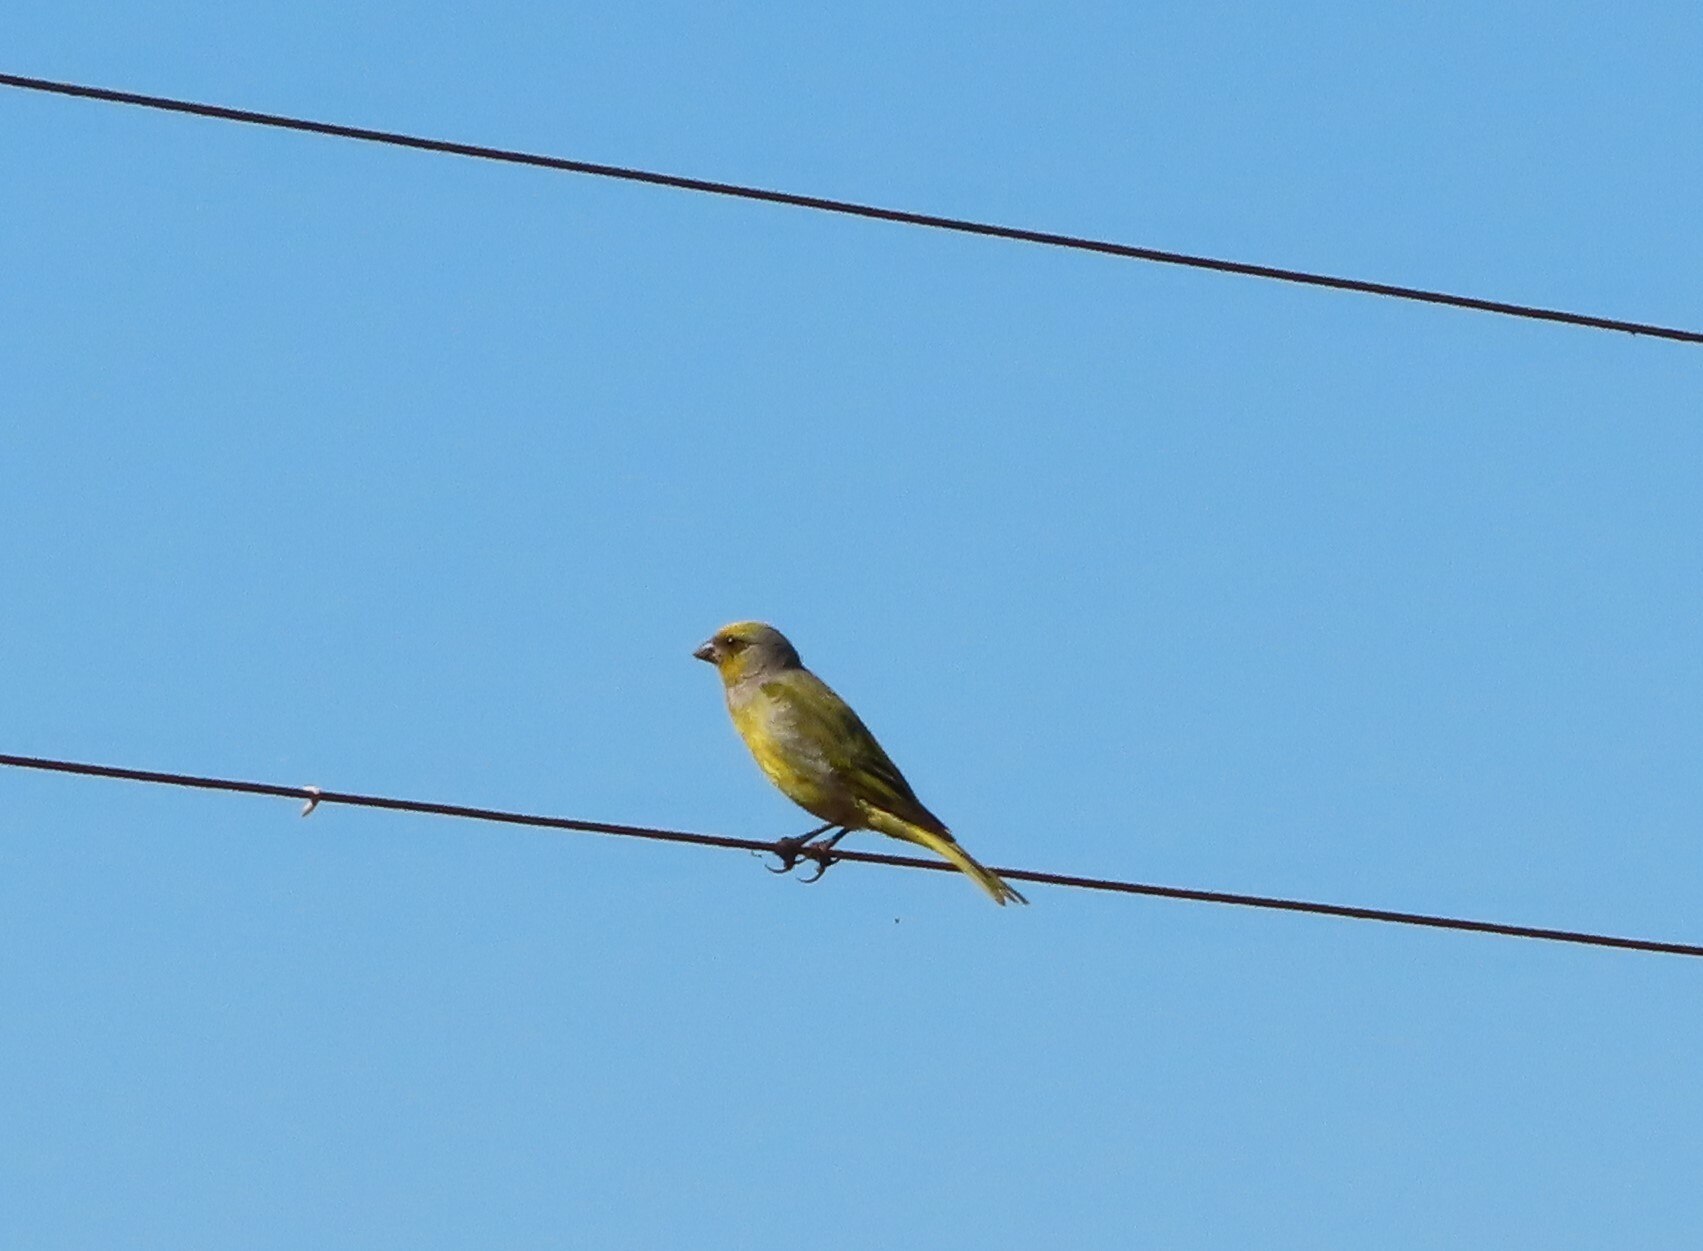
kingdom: Animalia
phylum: Chordata
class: Aves
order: Passeriformes
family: Fringillidae
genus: Serinus
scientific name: Serinus canicollis
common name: Cape canary
